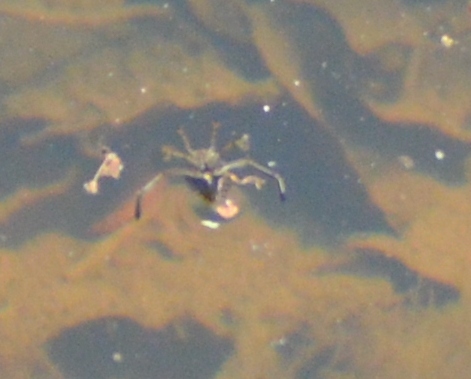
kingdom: Animalia
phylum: Arthropoda
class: Insecta
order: Hemiptera
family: Notonectidae
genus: Notonecta
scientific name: Notonecta
